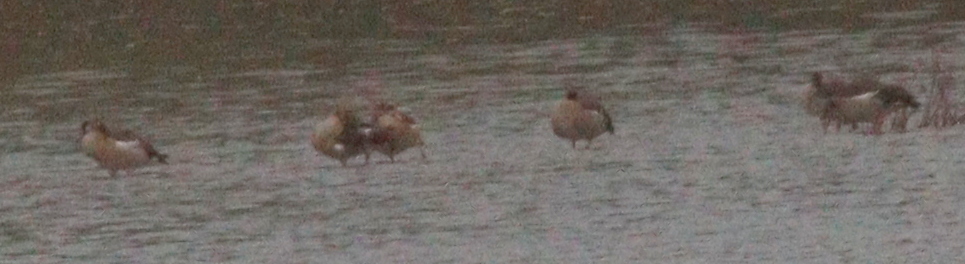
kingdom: Animalia
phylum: Chordata
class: Aves
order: Anseriformes
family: Anatidae
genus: Alopochen
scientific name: Alopochen aegyptiaca
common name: Egyptian goose
